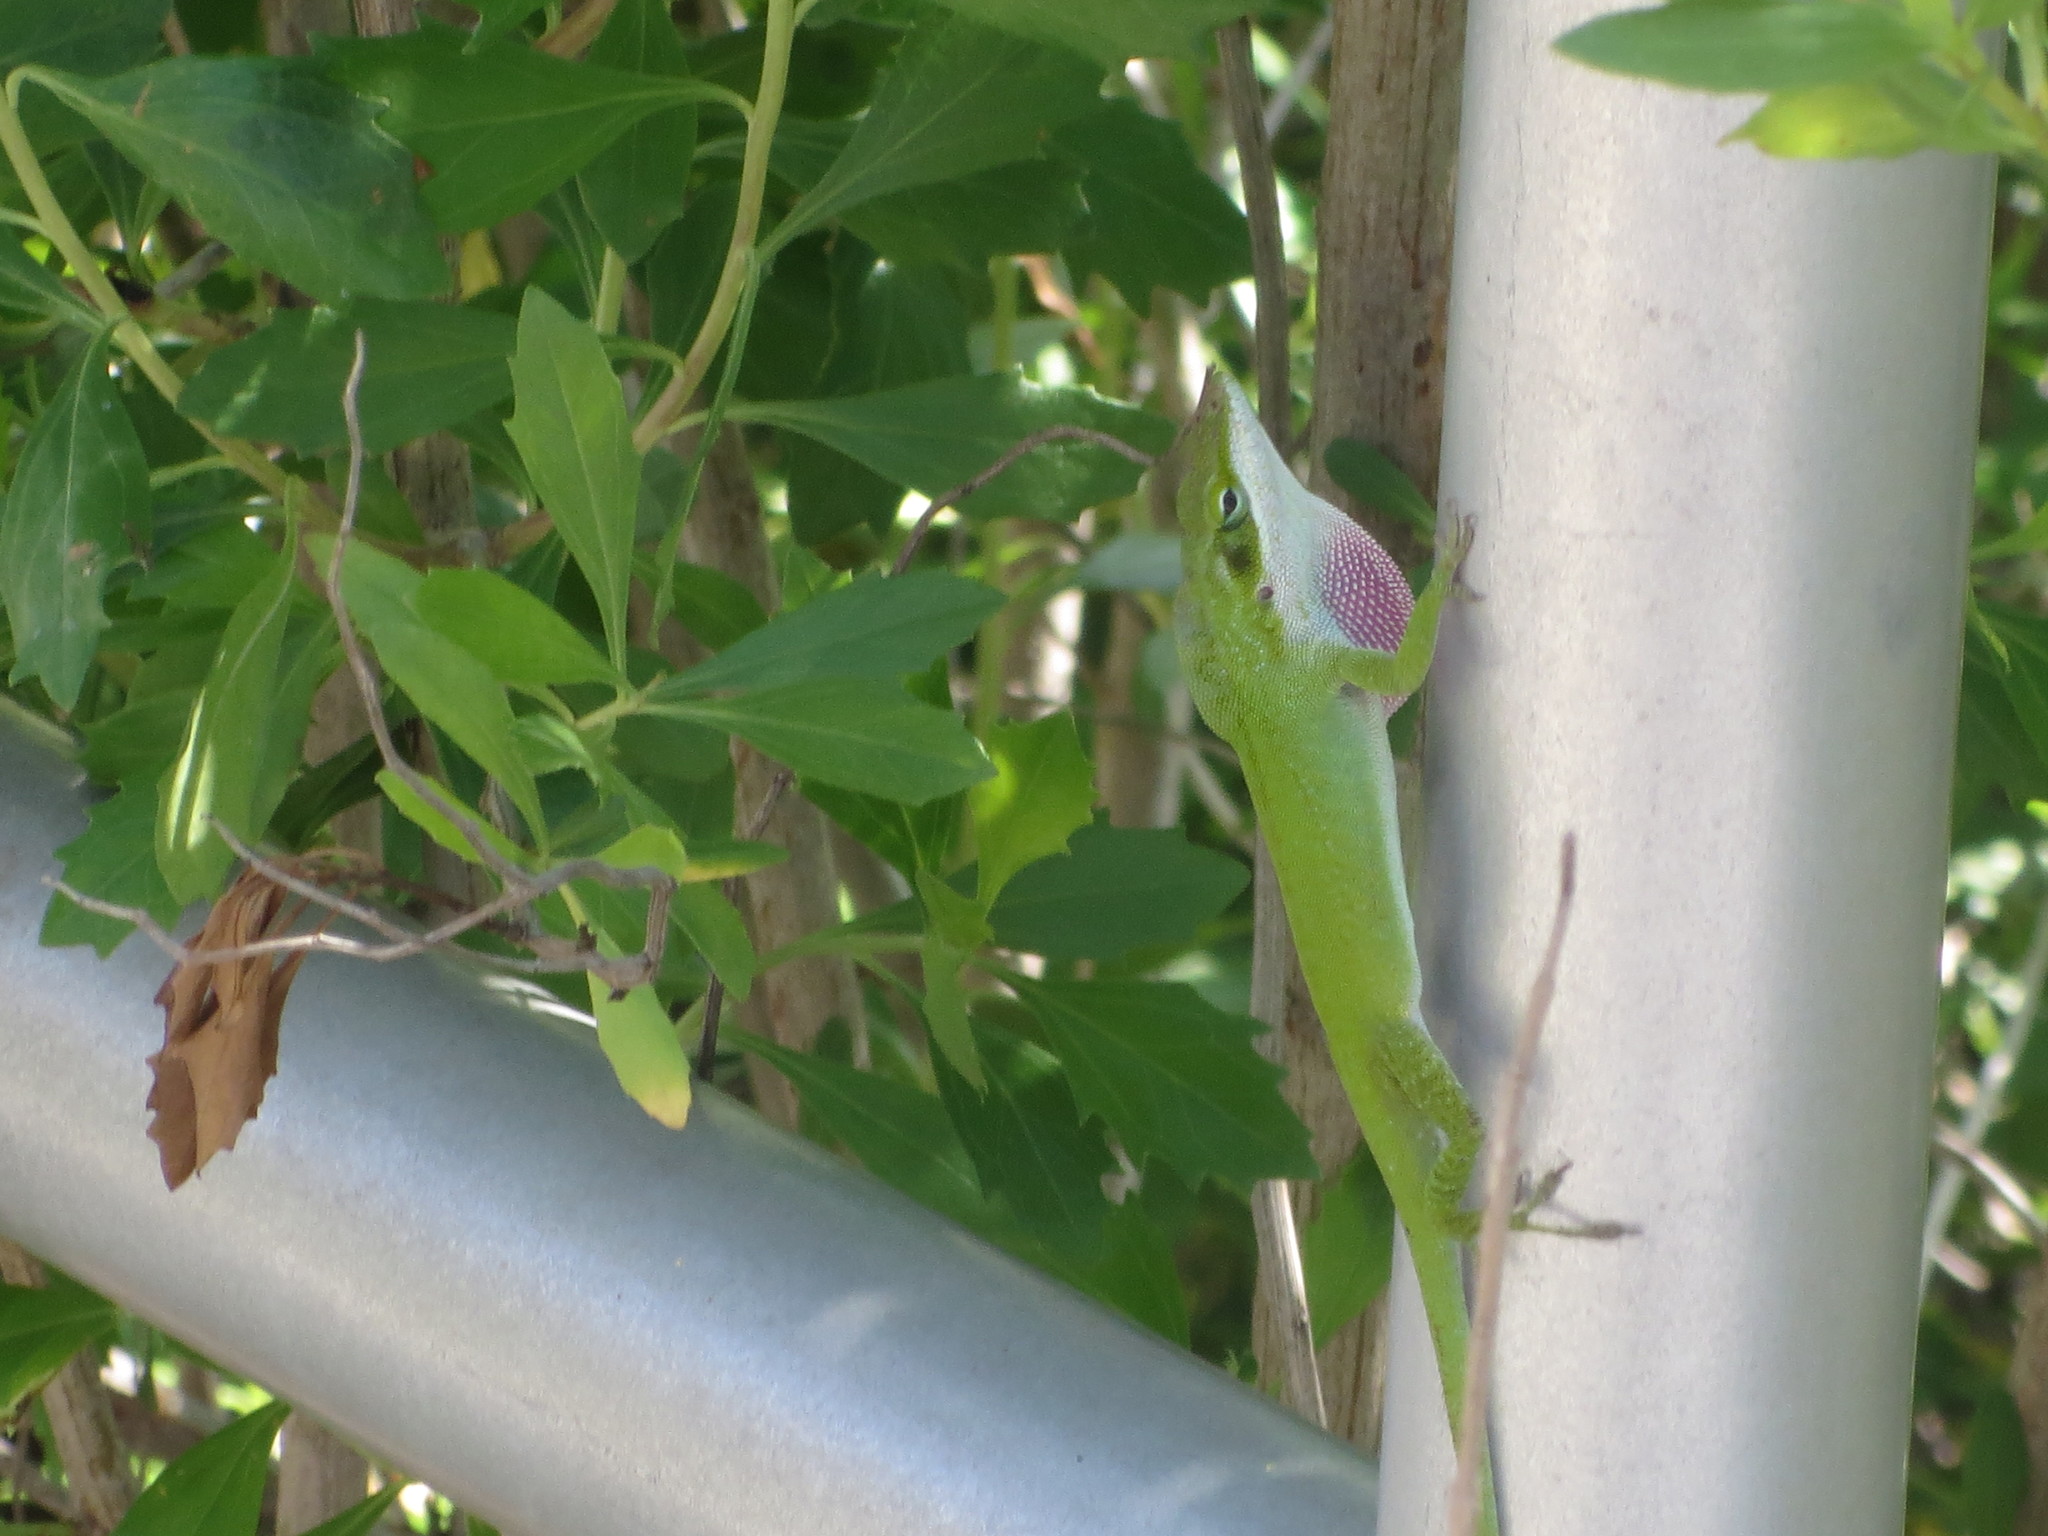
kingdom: Animalia
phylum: Chordata
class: Squamata
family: Dactyloidae
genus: Anolis
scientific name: Anolis carolinensis
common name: Green anole
